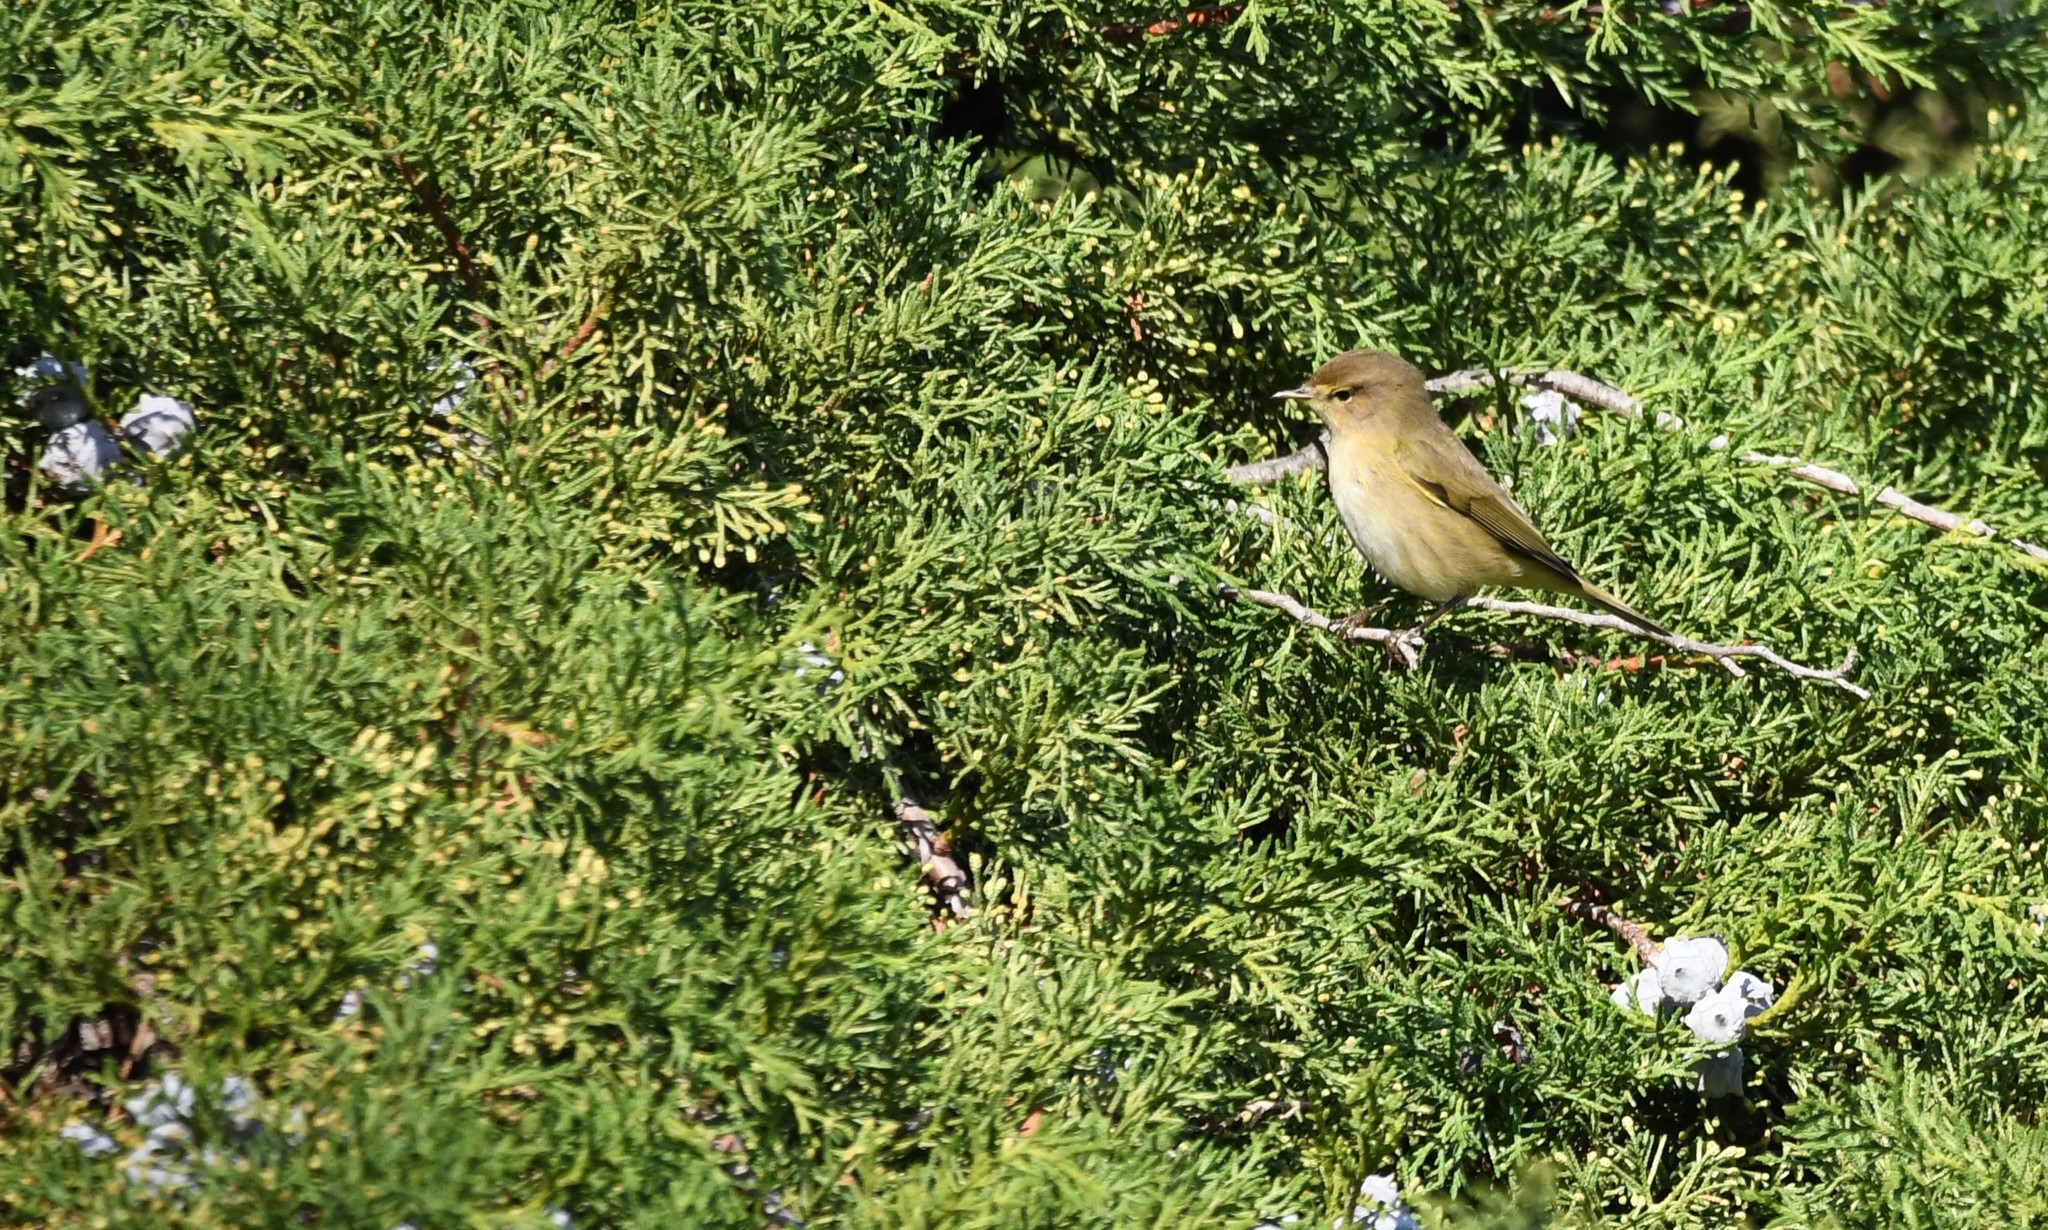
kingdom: Animalia
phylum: Chordata
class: Aves
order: Passeriformes
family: Phylloscopidae
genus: Phylloscopus
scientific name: Phylloscopus collybita
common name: Common chiffchaff
